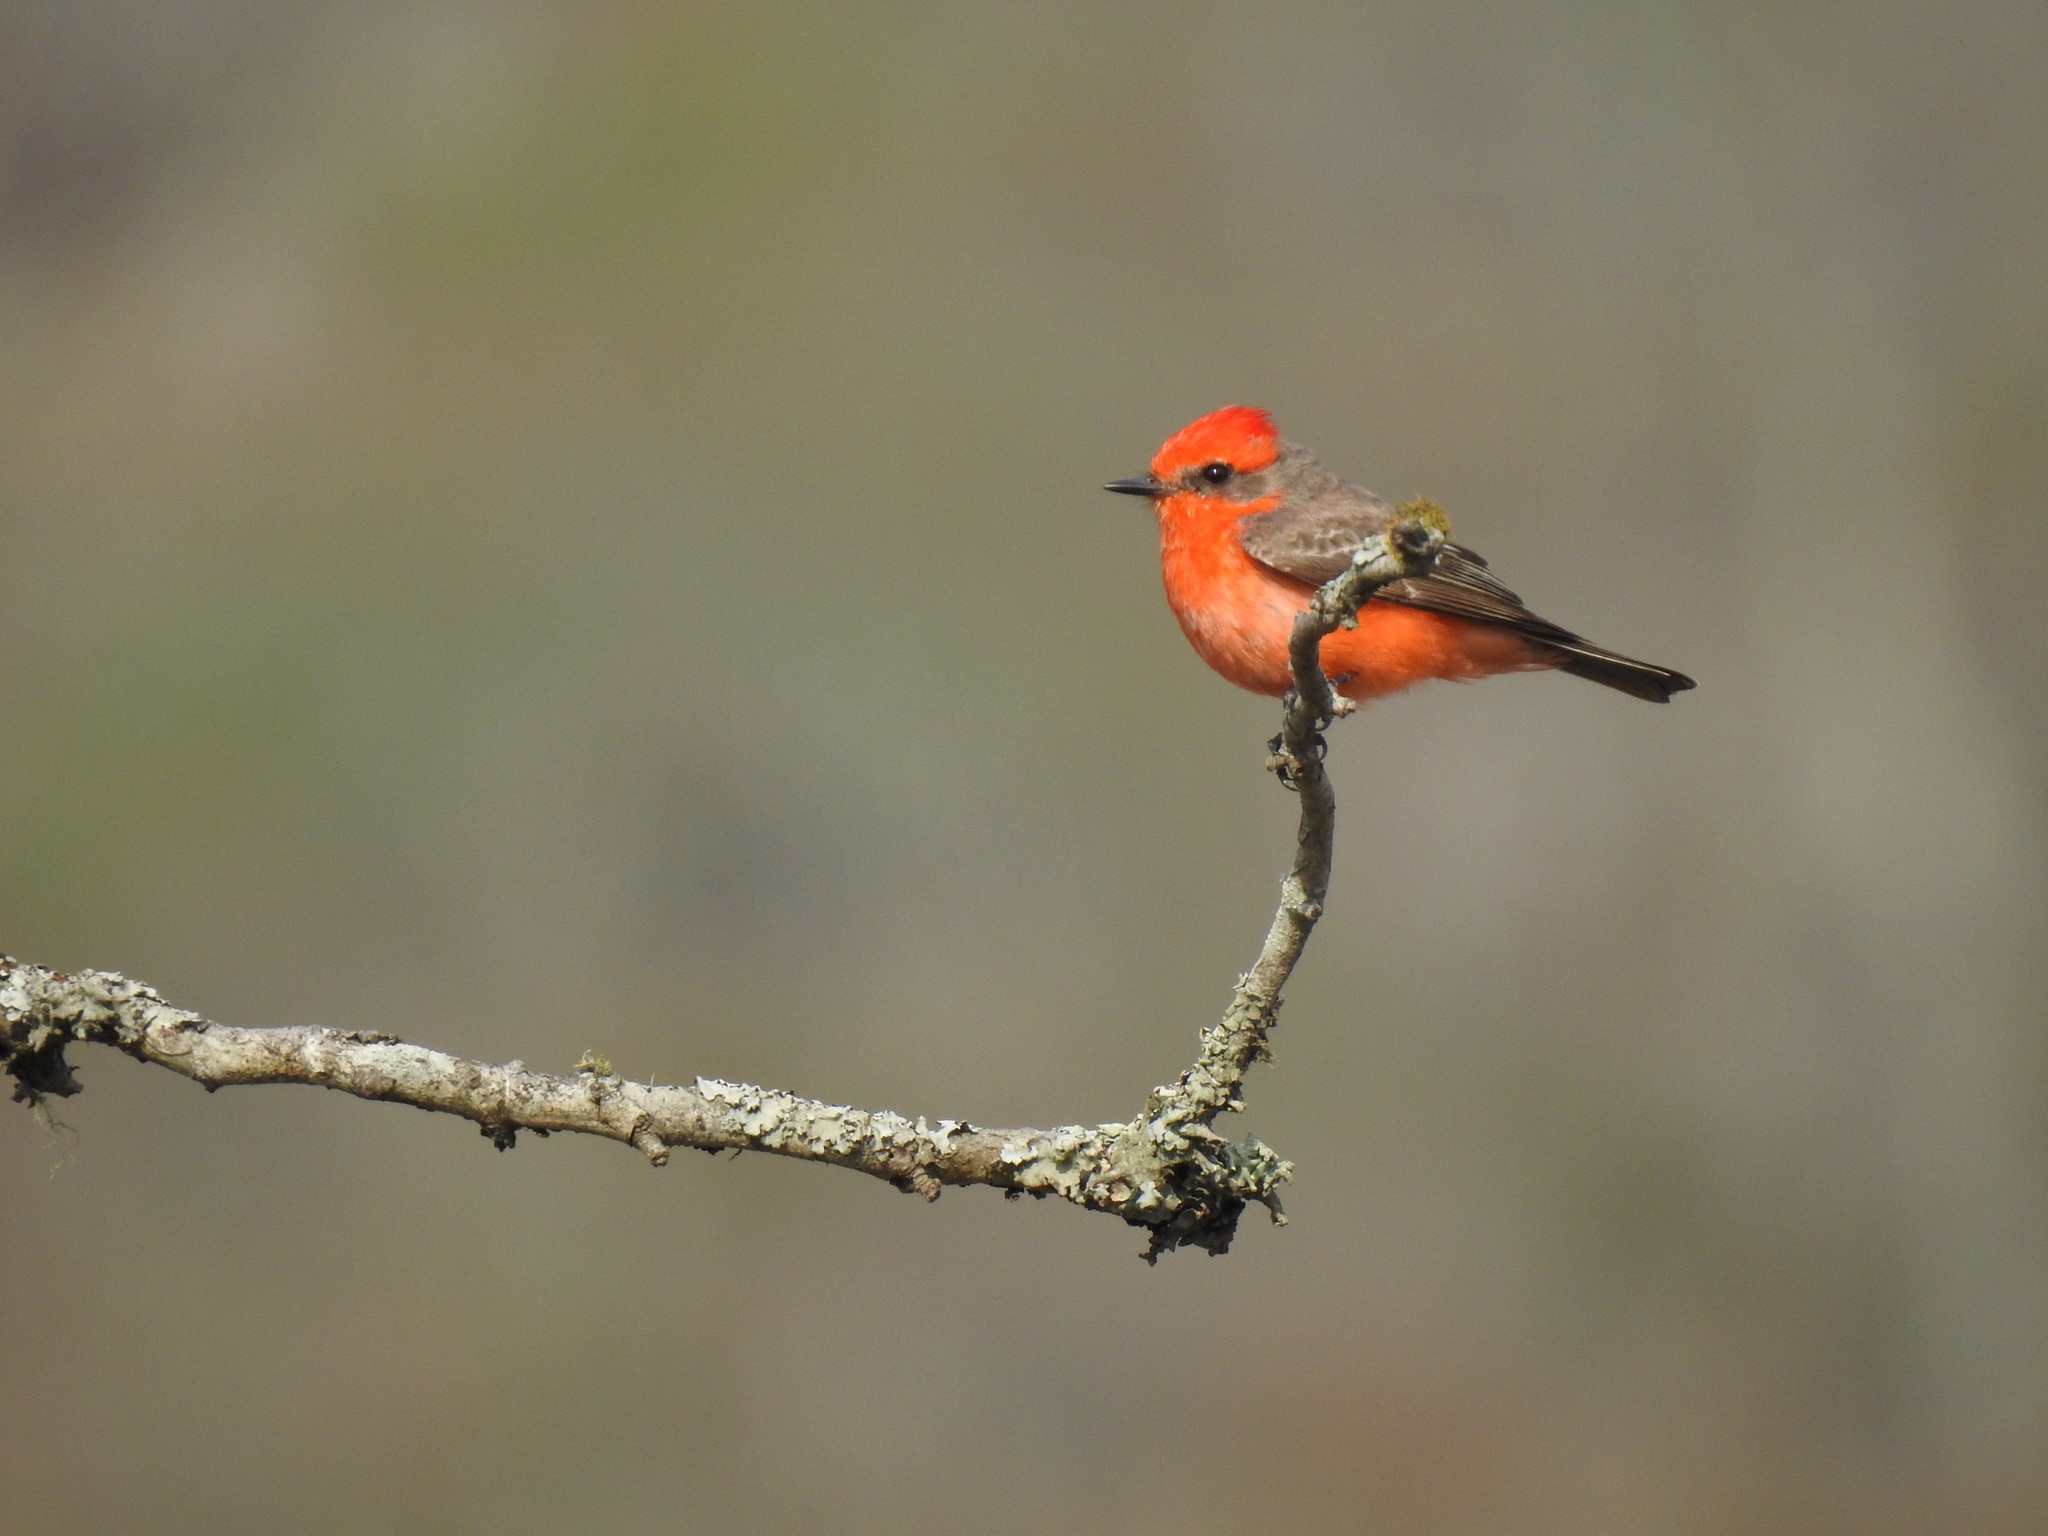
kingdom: Animalia
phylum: Chordata
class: Aves
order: Passeriformes
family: Tyrannidae
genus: Pyrocephalus
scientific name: Pyrocephalus rubinus
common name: Vermilion flycatcher
